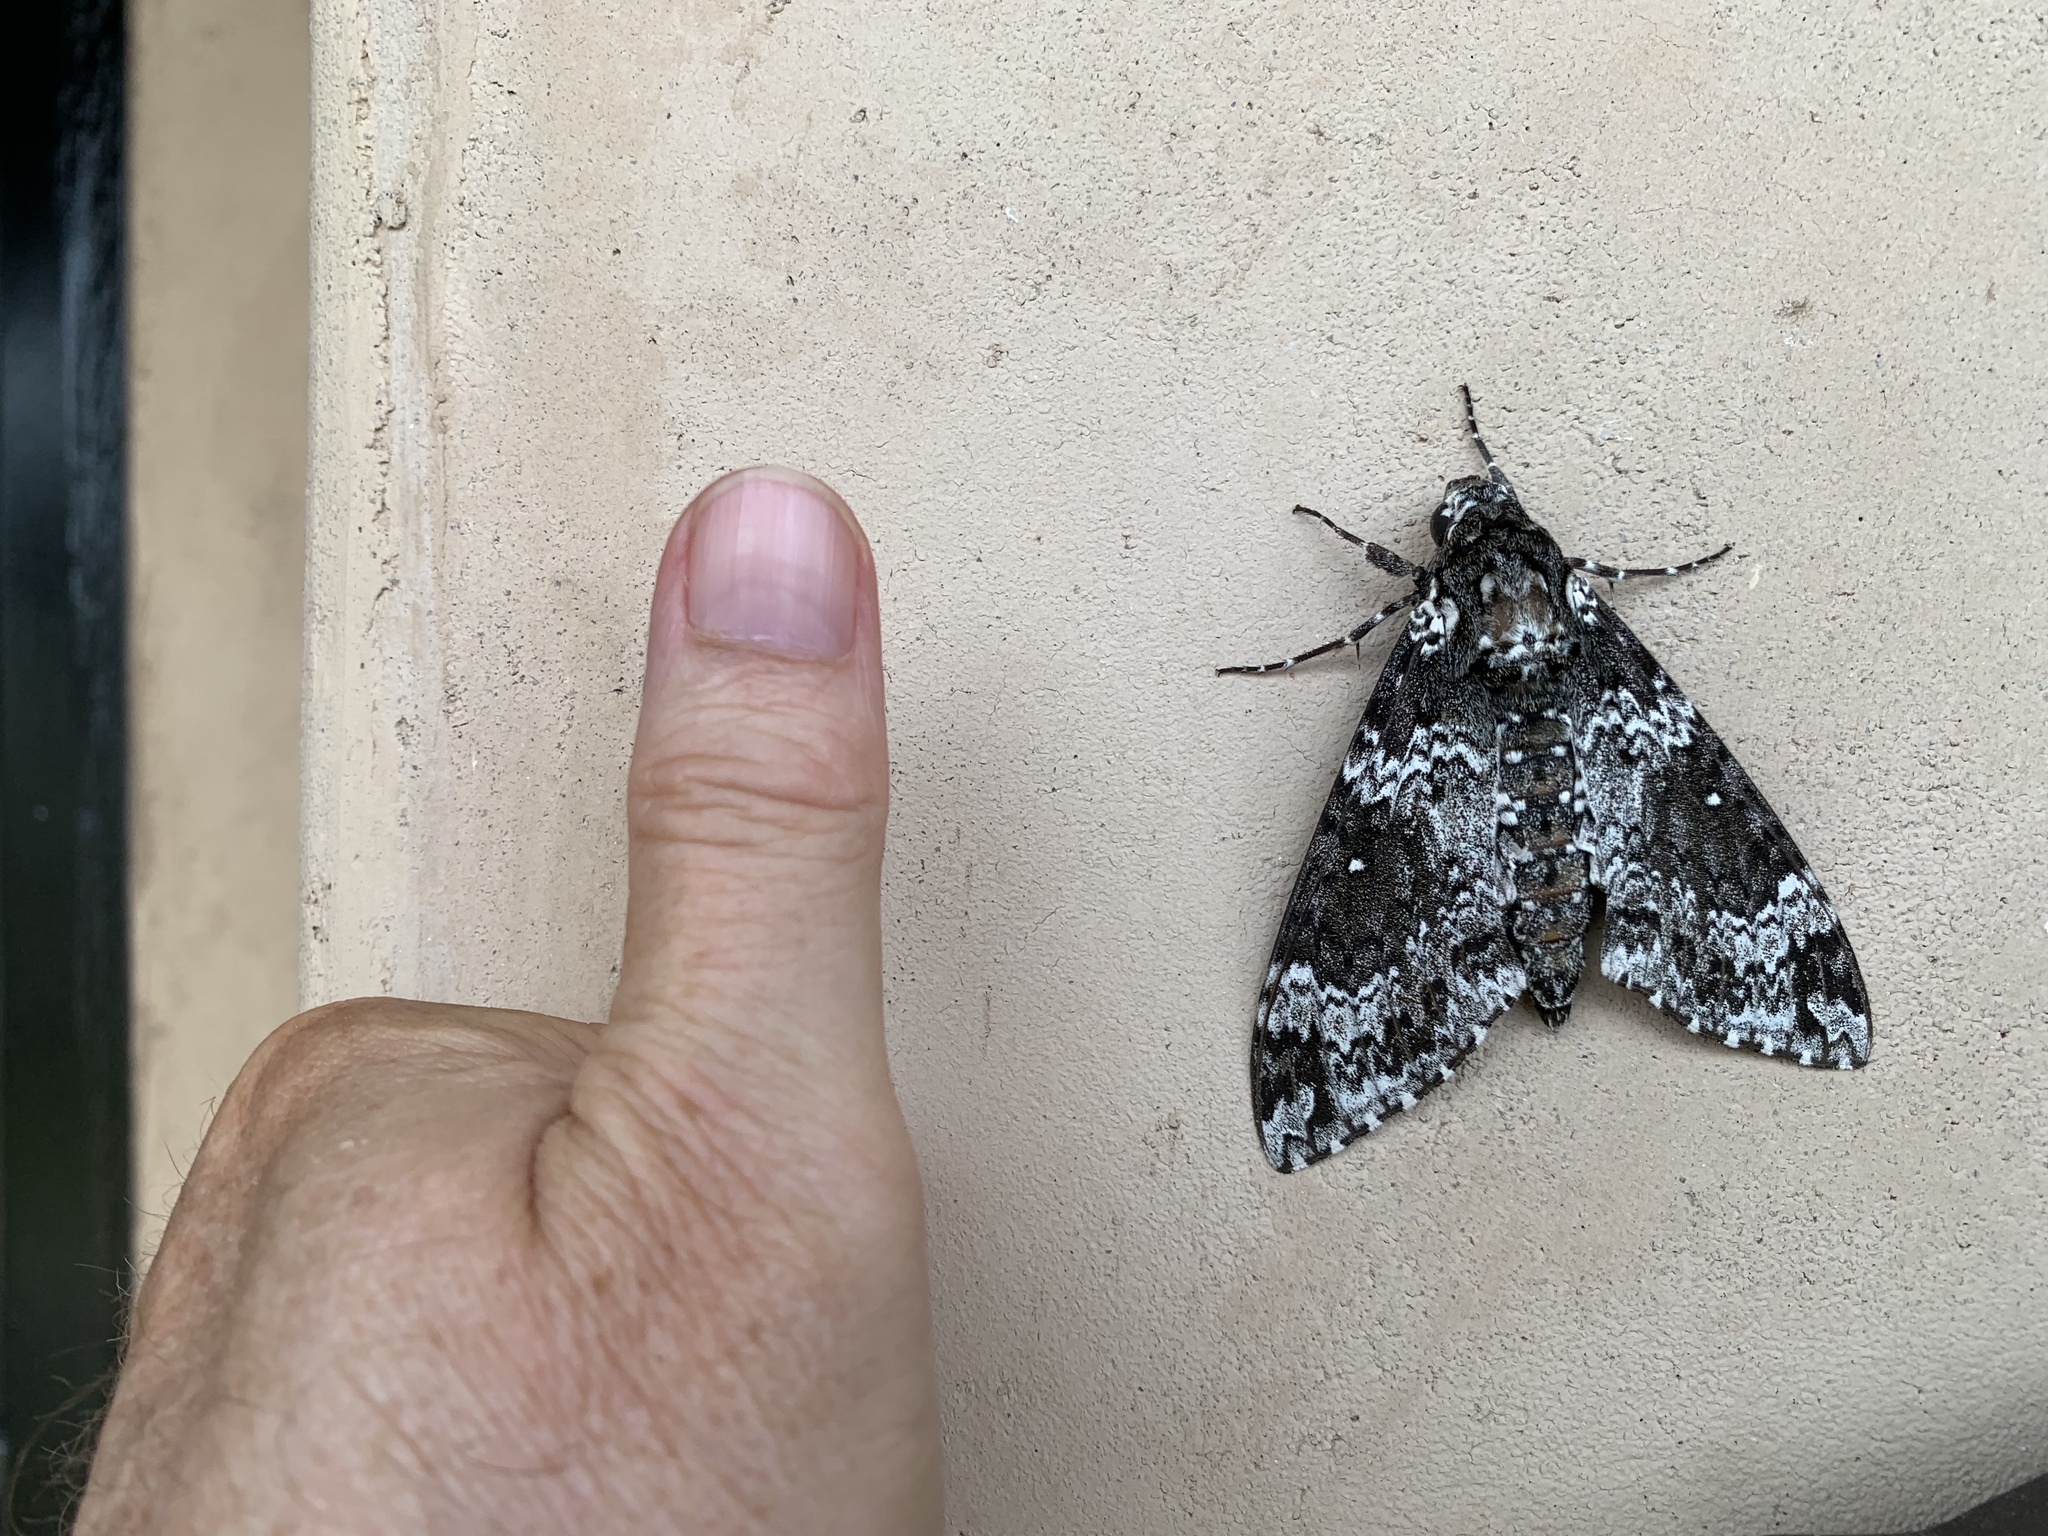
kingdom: Animalia
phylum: Arthropoda
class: Insecta
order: Lepidoptera
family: Sphingidae
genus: Manduca
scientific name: Manduca rustica
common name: Rustic sphinx
